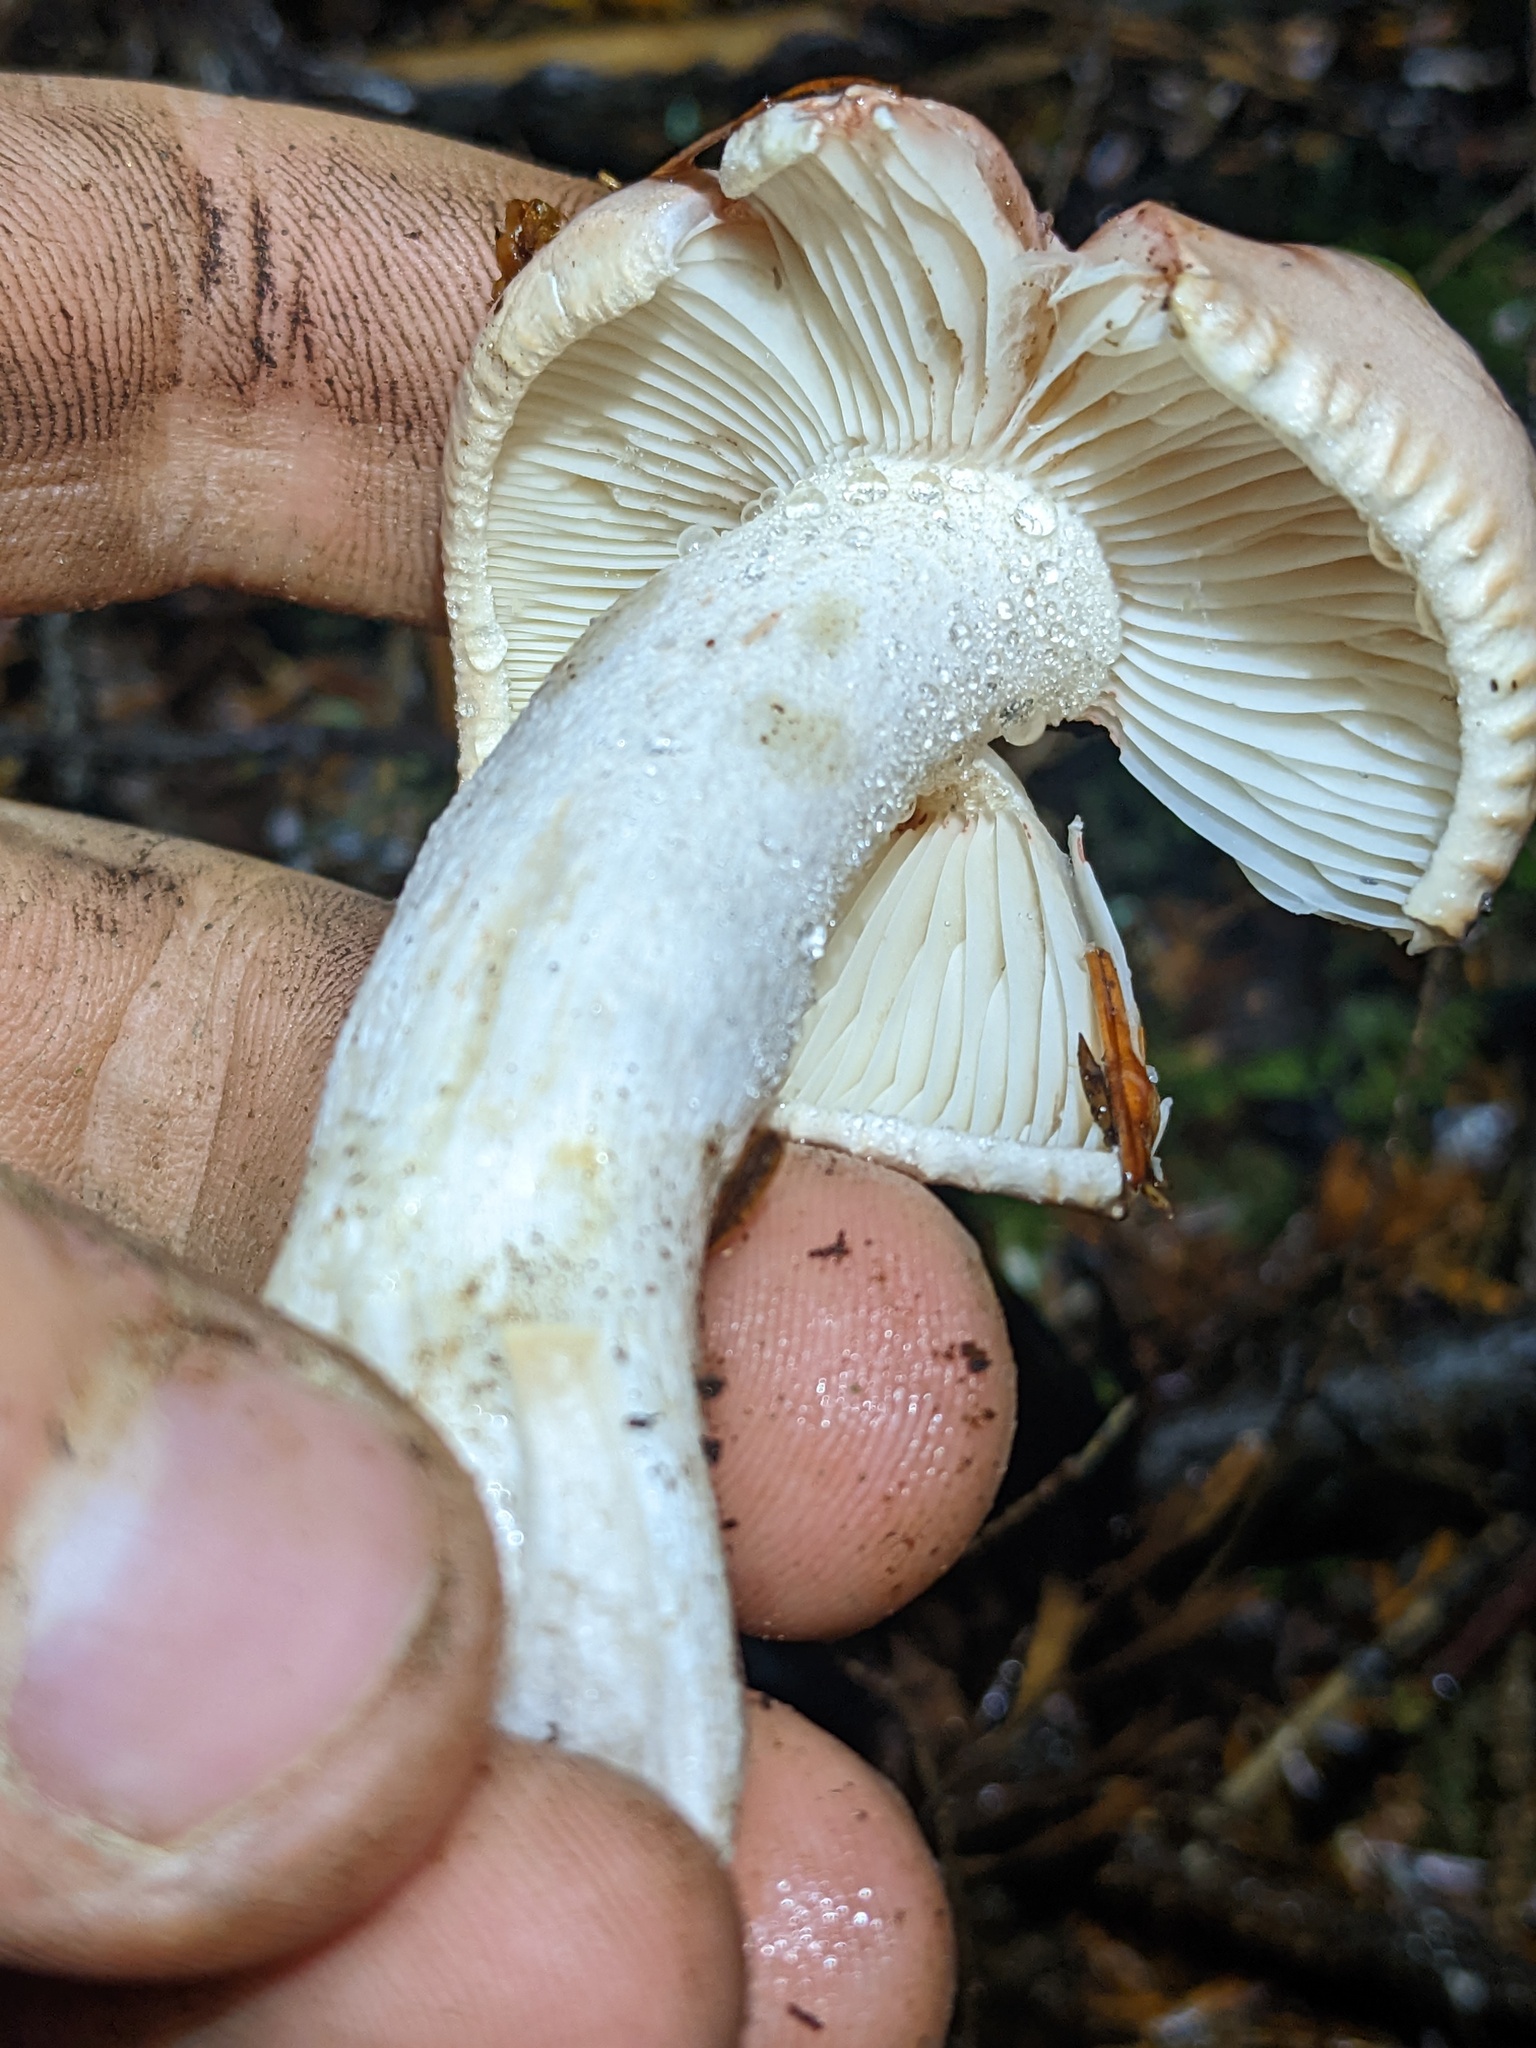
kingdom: Fungi
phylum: Basidiomycota
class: Agaricomycetes
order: Agaricales
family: Hygrophoraceae
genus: Hygrophorus
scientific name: Hygrophorus erubescens
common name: Blotched woodwax
